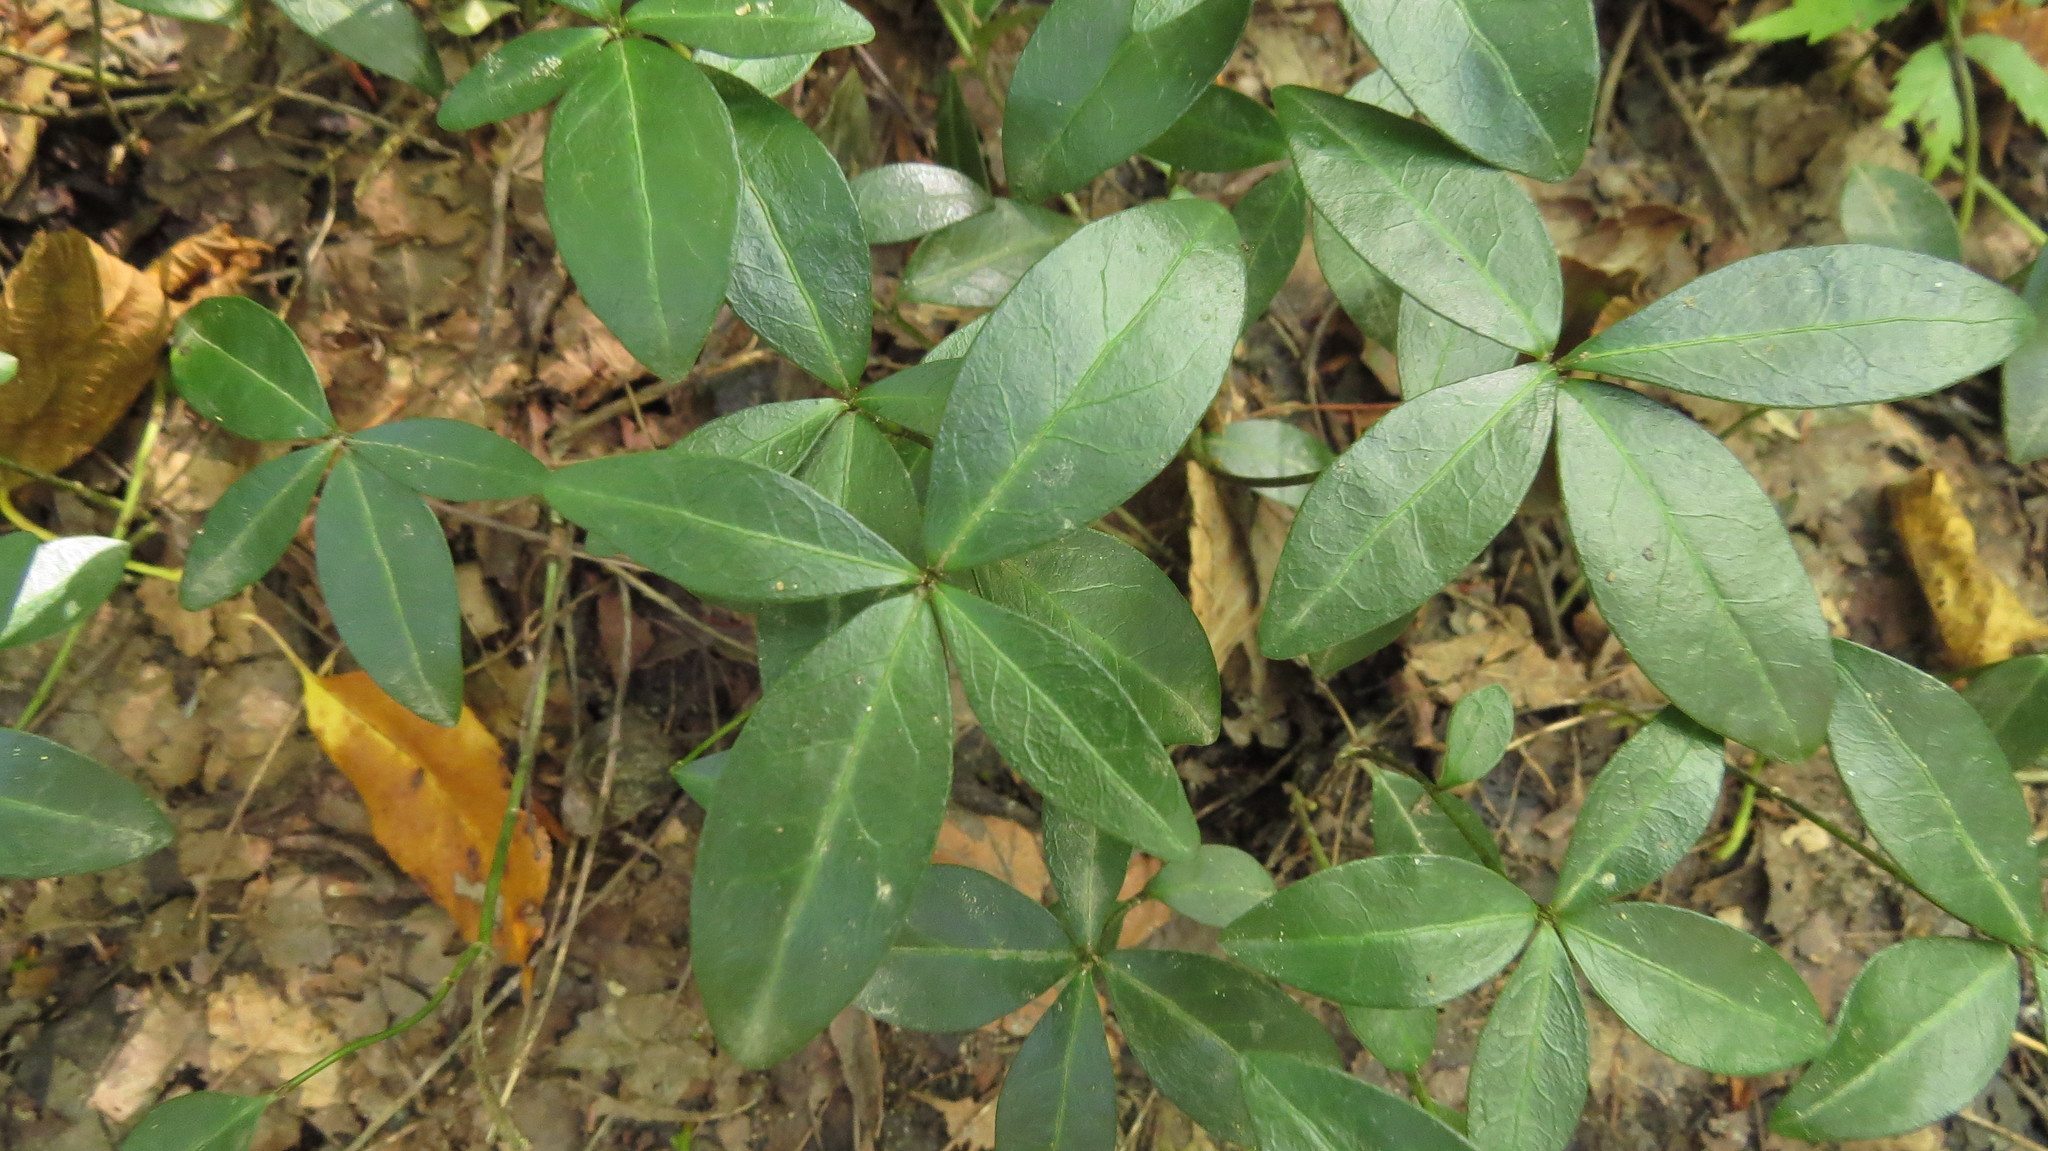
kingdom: Plantae
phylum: Tracheophyta
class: Magnoliopsida
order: Gentianales
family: Apocynaceae
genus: Vinca
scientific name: Vinca minor
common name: Lesser periwinkle
